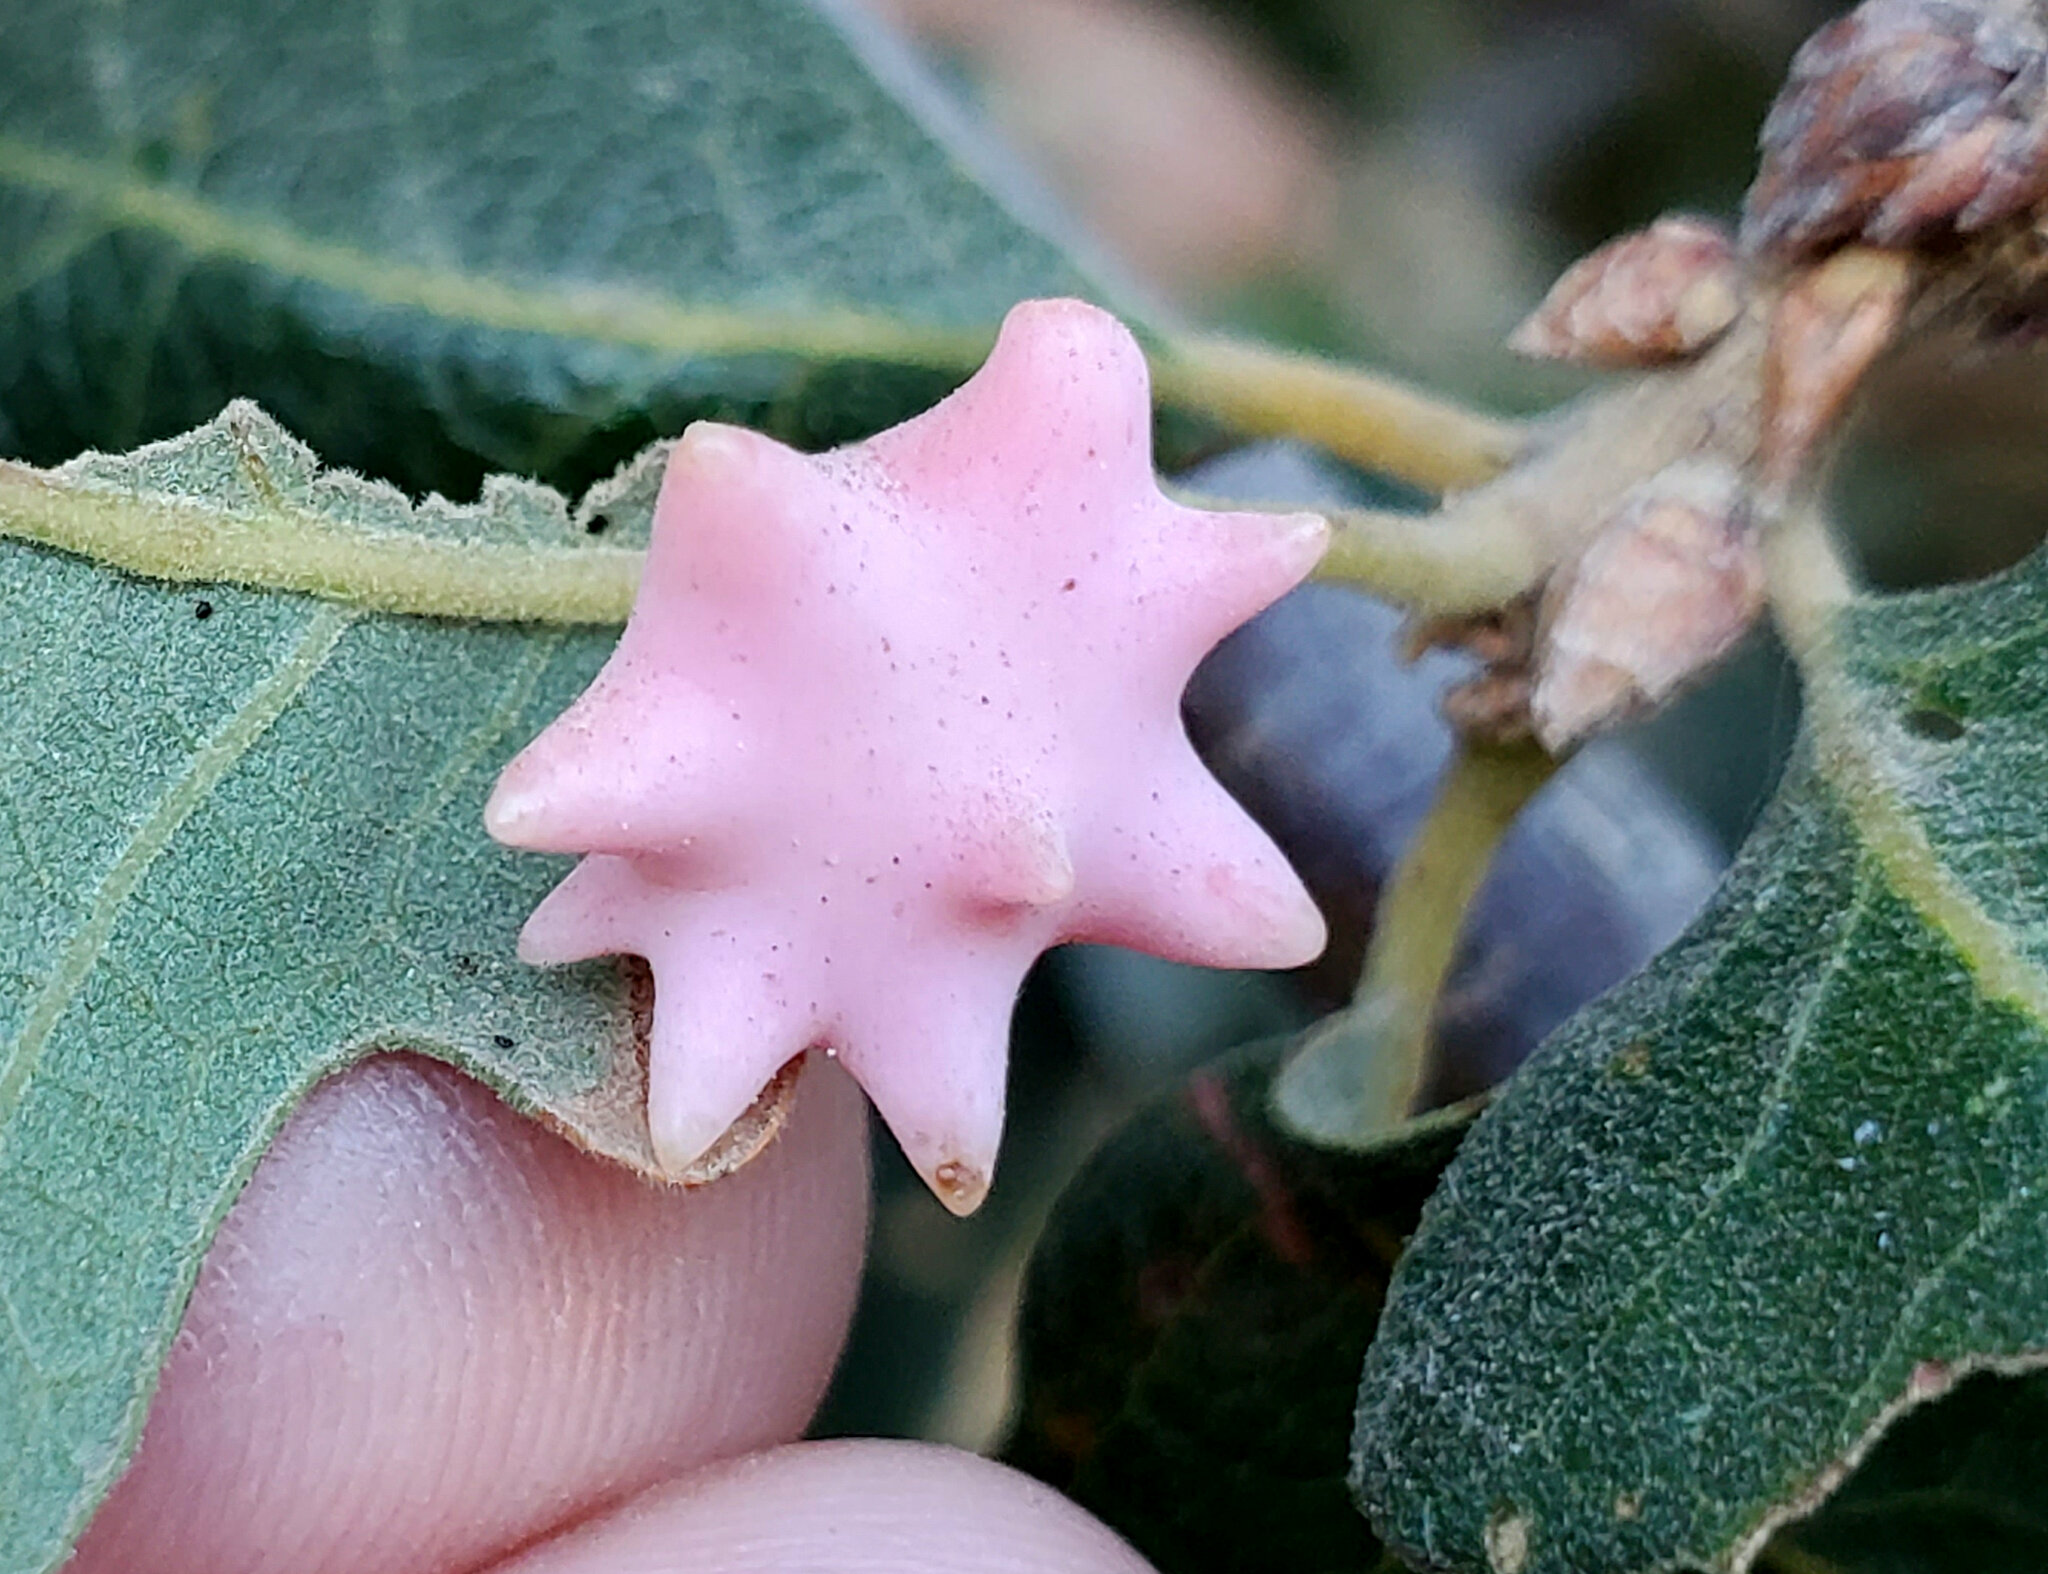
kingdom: Animalia
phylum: Arthropoda
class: Insecta
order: Hymenoptera
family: Cynipidae
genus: Cynips
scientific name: Cynips douglasi
